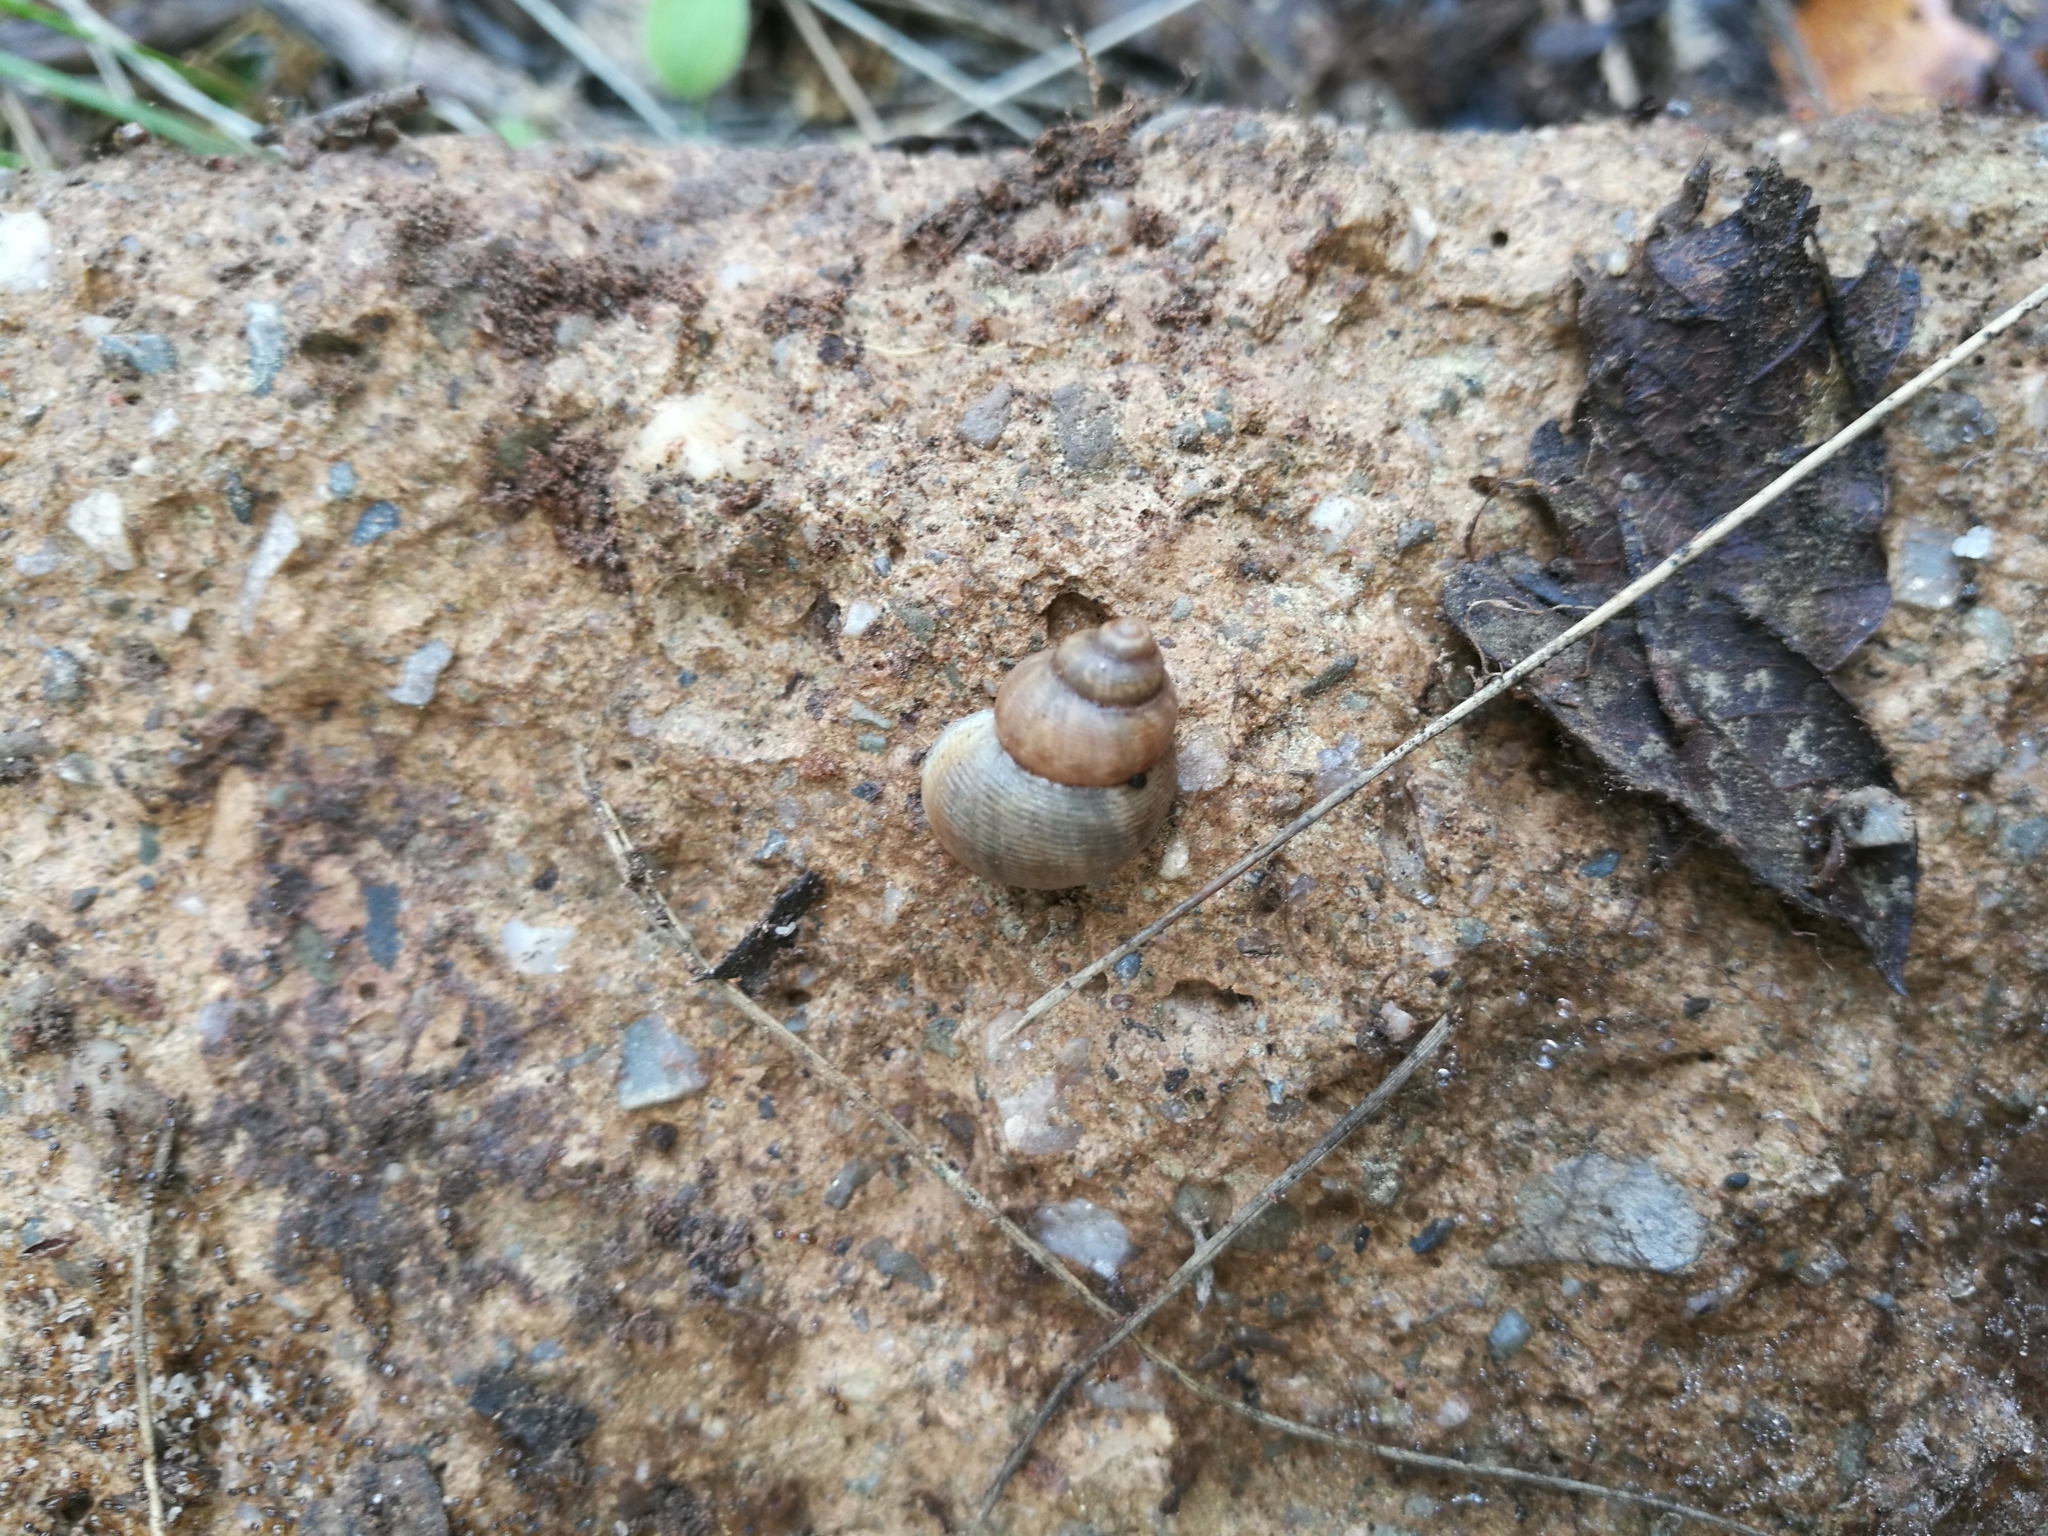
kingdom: Animalia
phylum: Mollusca
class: Gastropoda
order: Littorinimorpha
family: Pomatiidae
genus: Pomatias
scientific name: Pomatias elegans
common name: Red-mouthed snail
